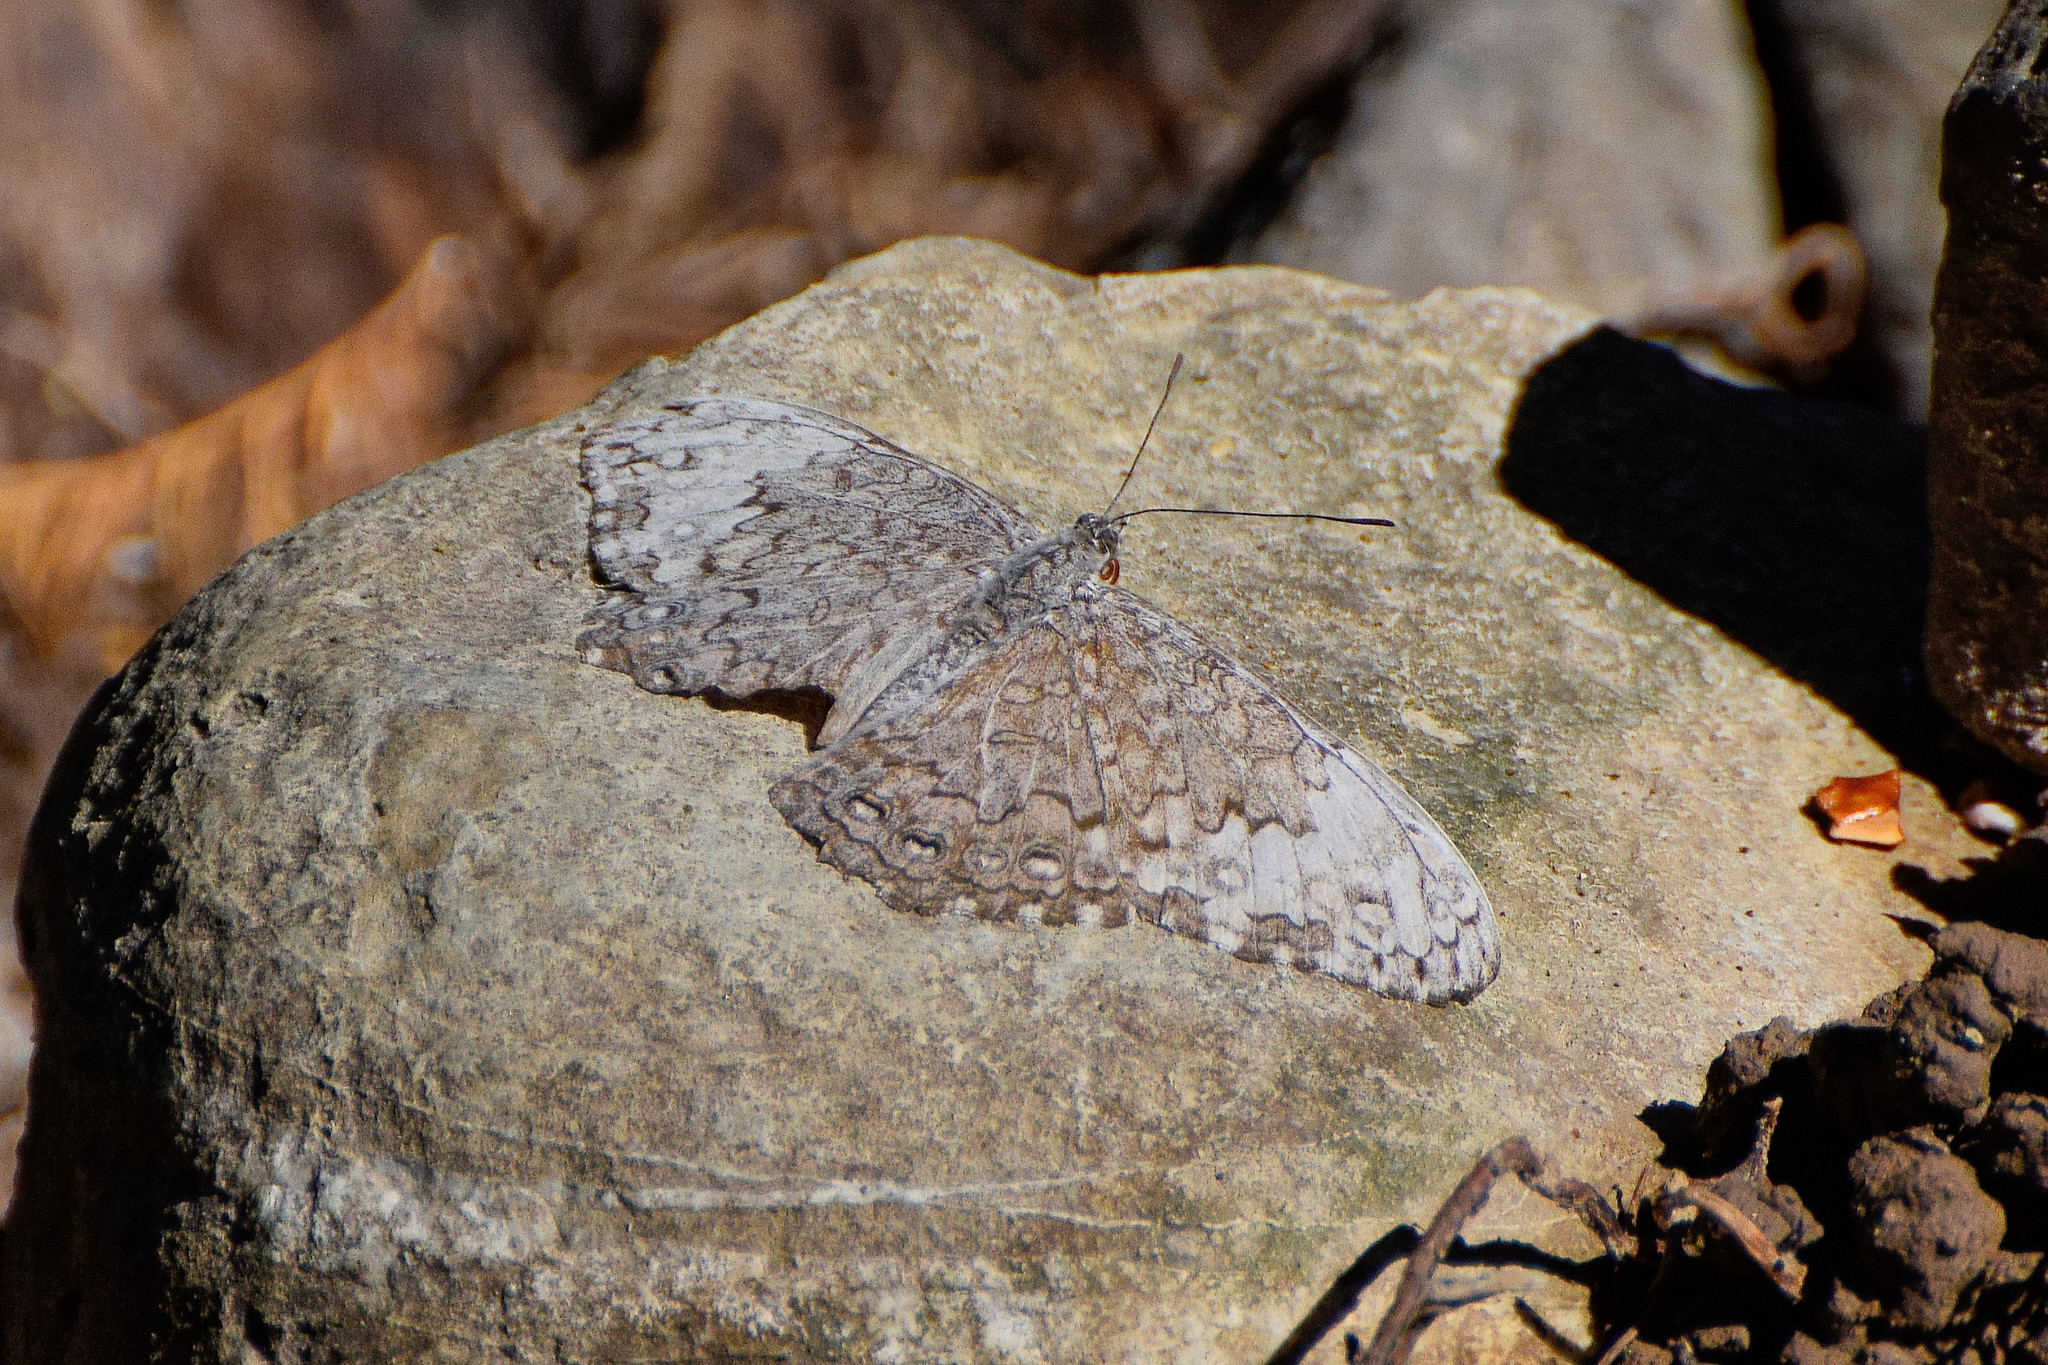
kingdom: Animalia
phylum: Arthropoda
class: Insecta
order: Lepidoptera
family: Nymphalidae
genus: Hamadryas
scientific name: Hamadryas glauconome
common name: Glaucous cracker
